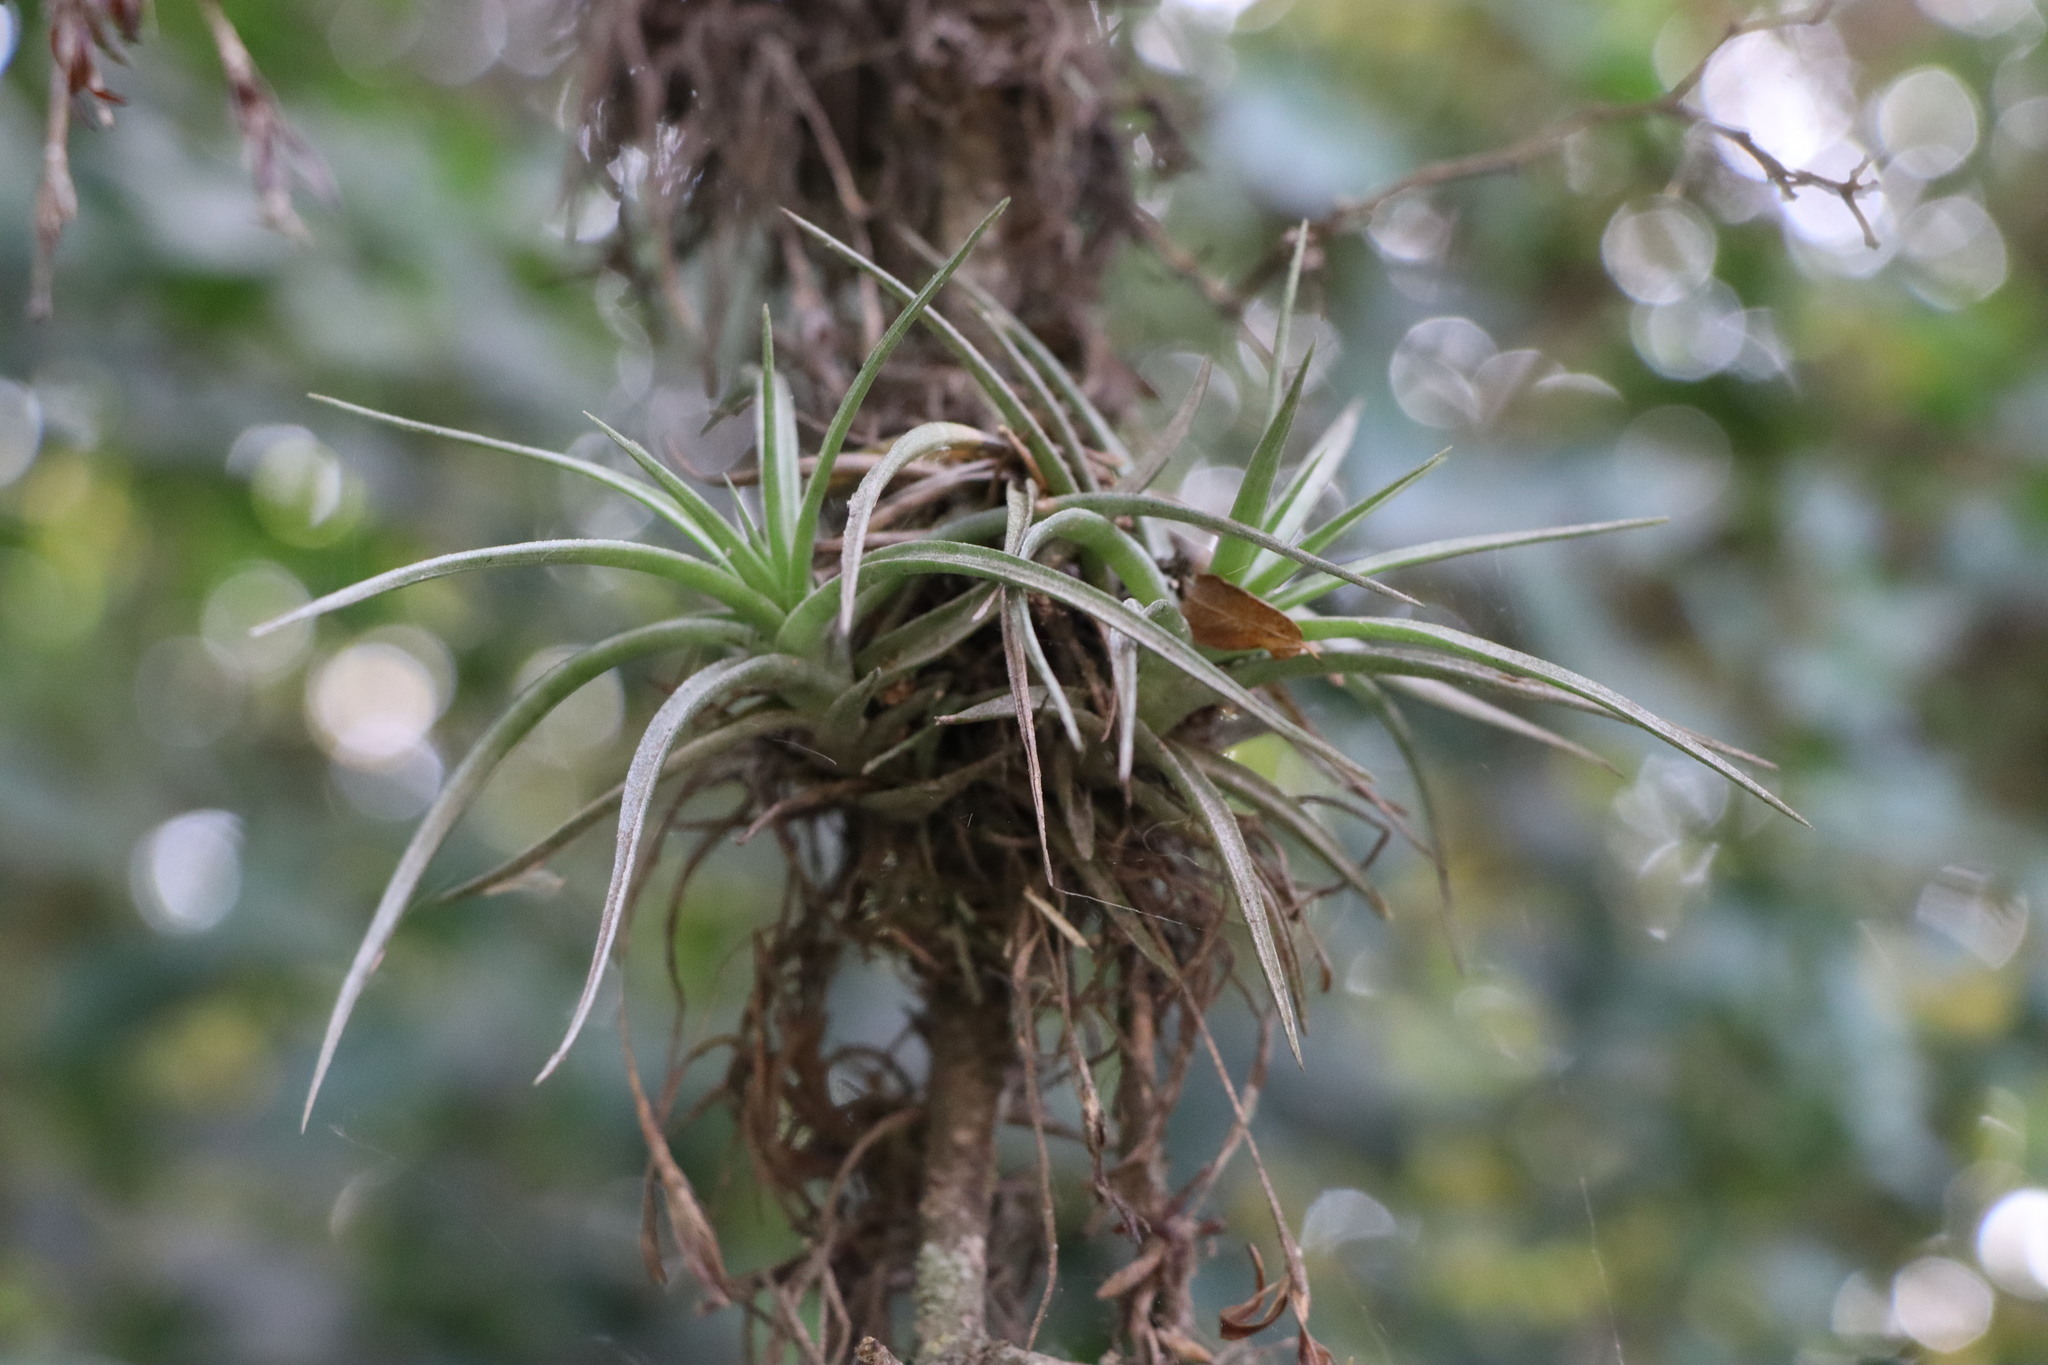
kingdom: Plantae
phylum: Tracheophyta
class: Liliopsida
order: Poales
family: Bromeliaceae
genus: Tillandsia
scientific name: Tillandsia aeranthos
